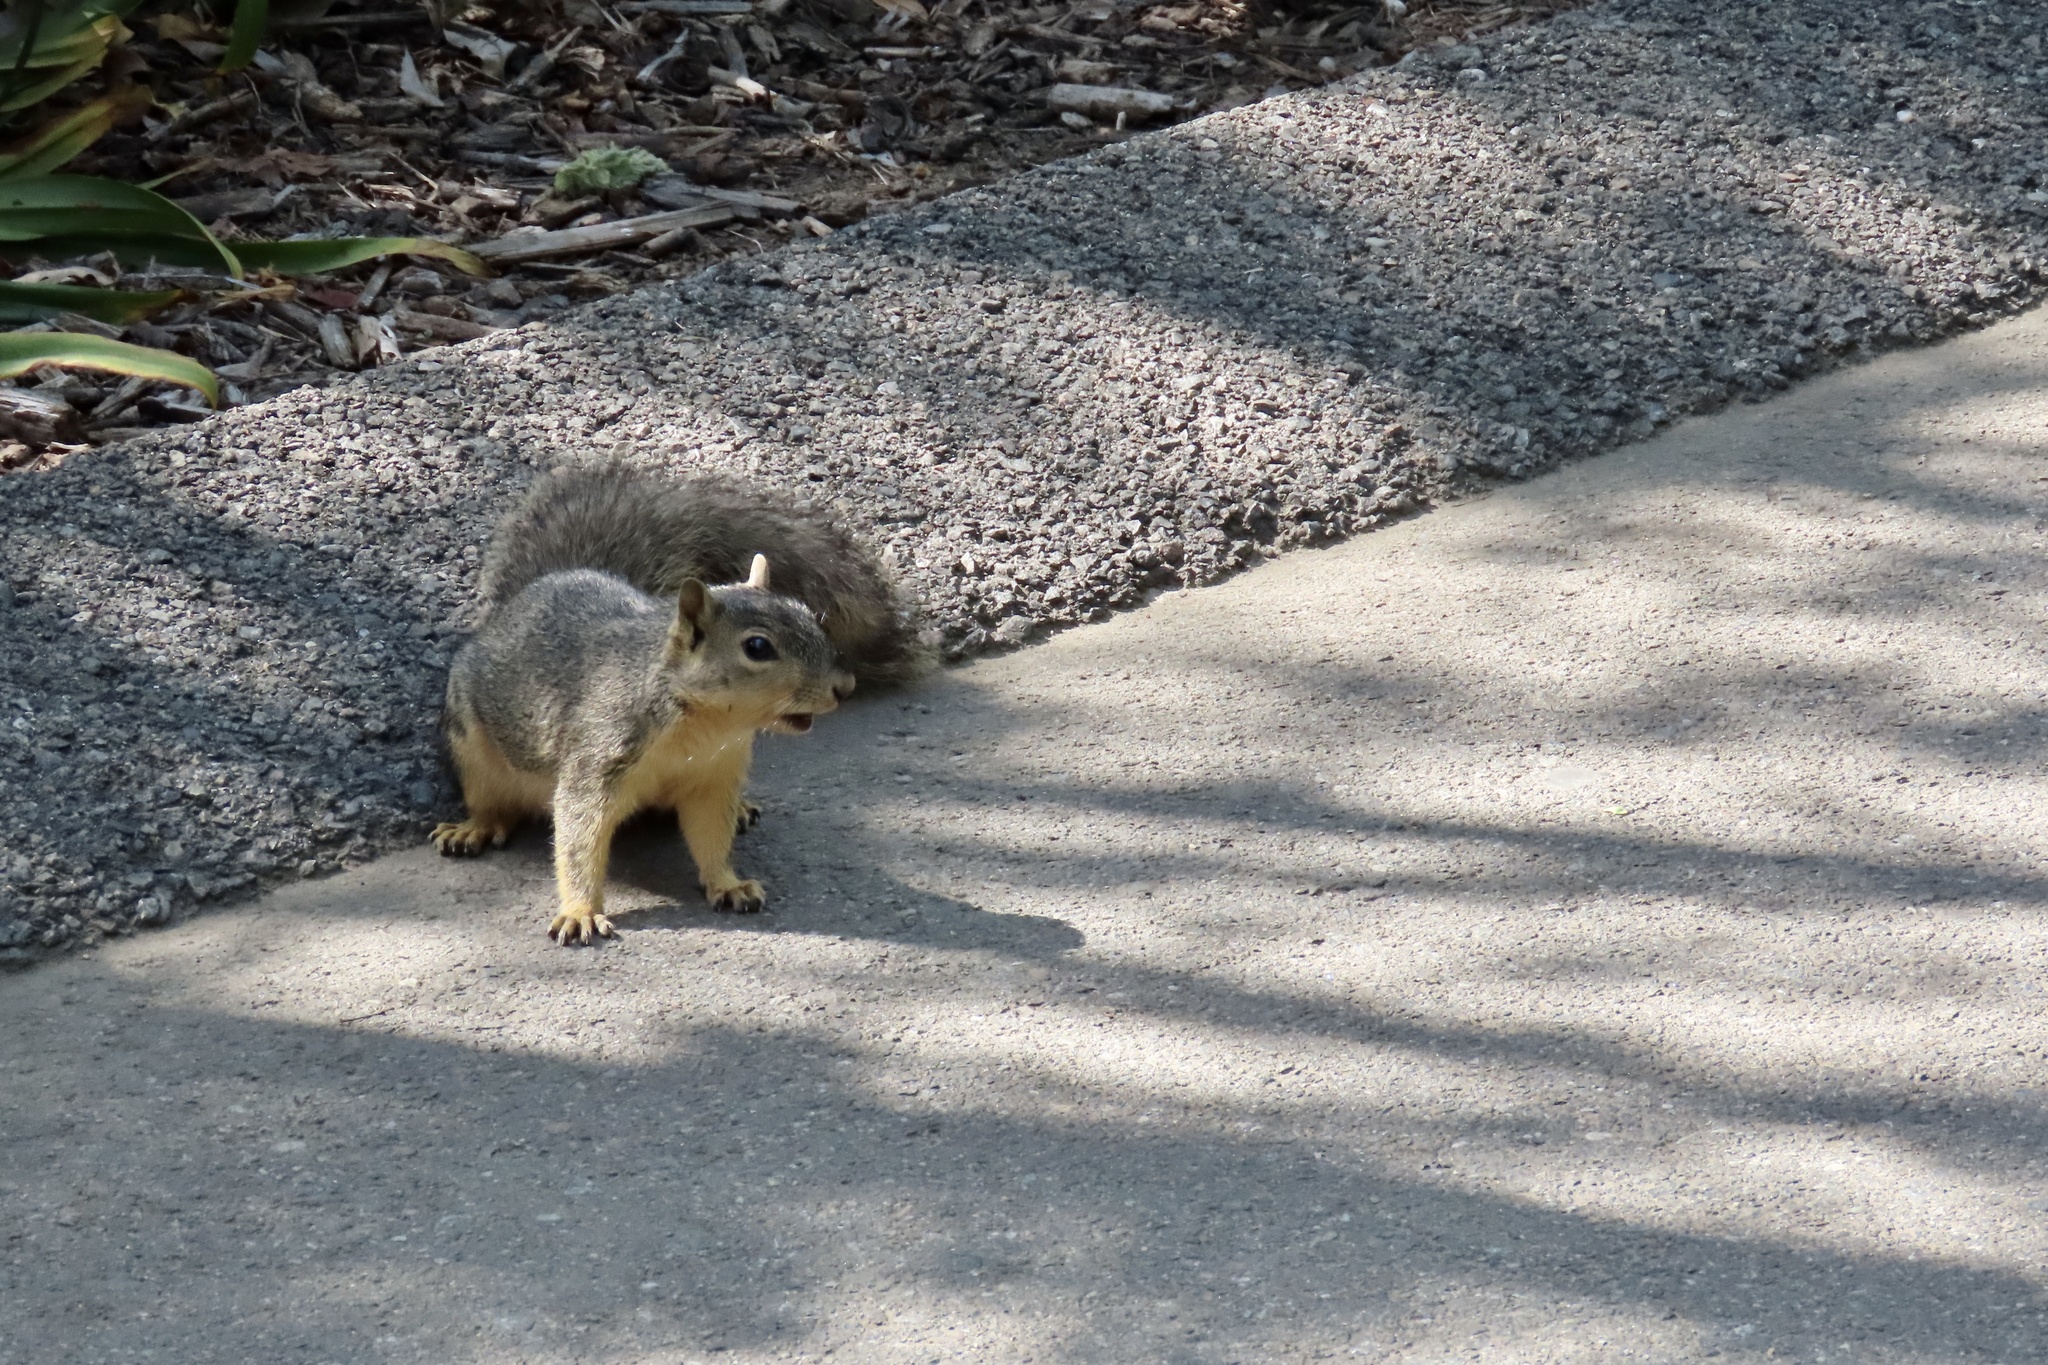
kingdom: Animalia
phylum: Chordata
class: Mammalia
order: Rodentia
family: Sciuridae
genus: Sciurus
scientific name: Sciurus niger
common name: Fox squirrel
